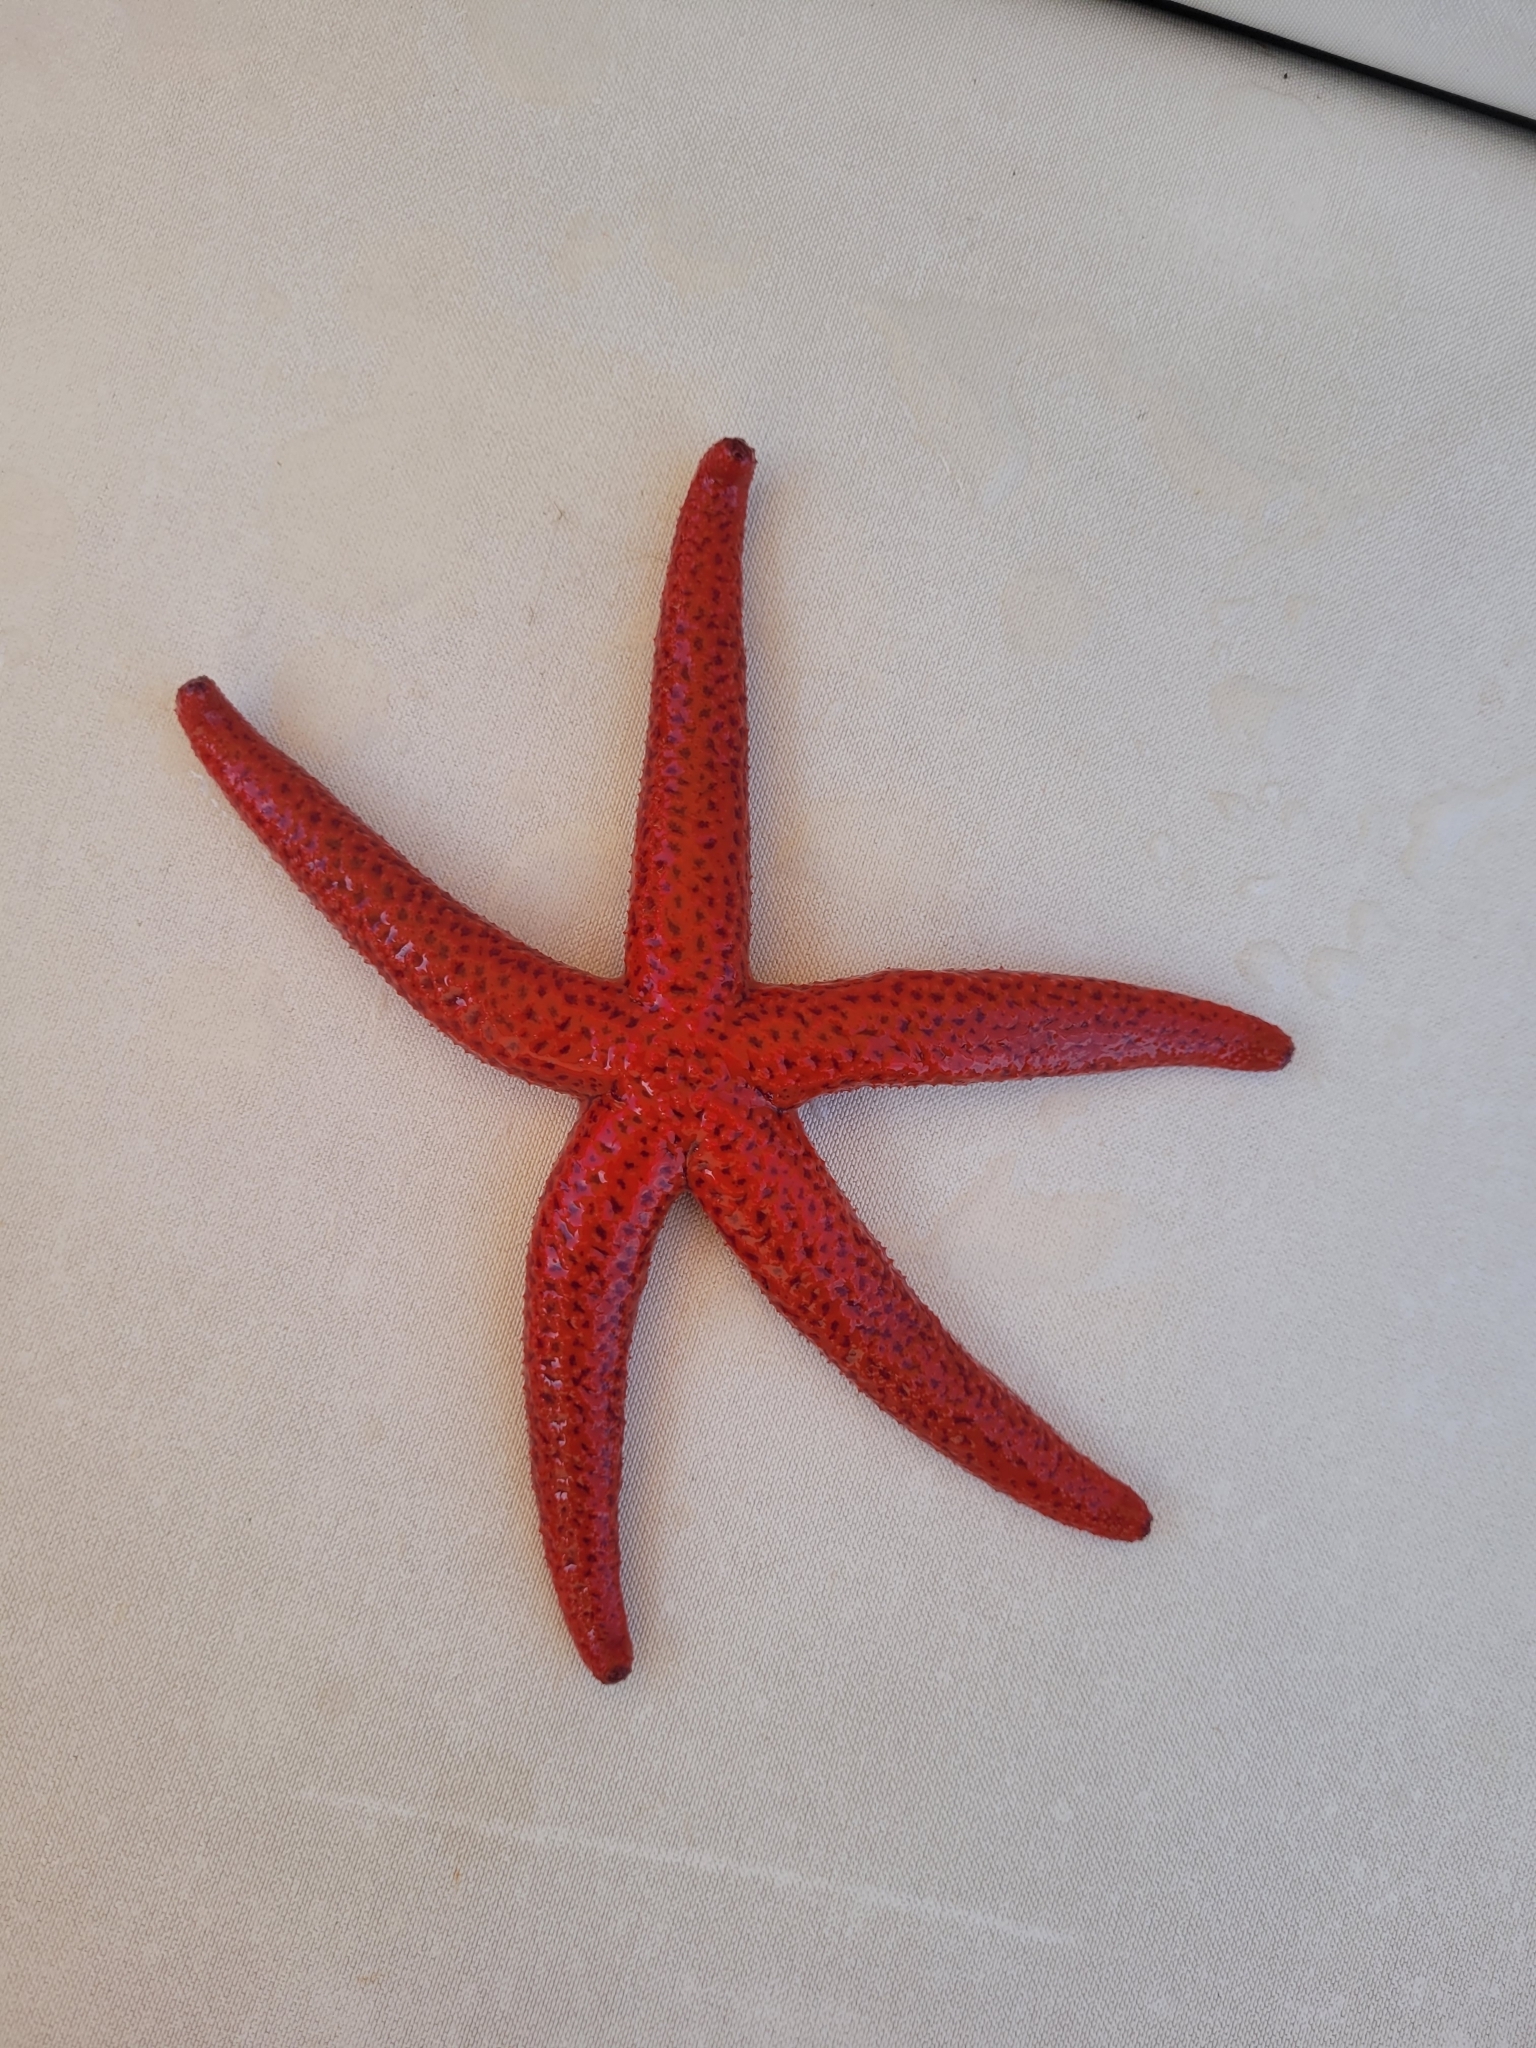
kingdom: Animalia
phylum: Echinodermata
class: Asteroidea
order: Spinulosida
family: Echinasteridae
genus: Echinaster
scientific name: Echinaster sepositus
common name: Red starfish
